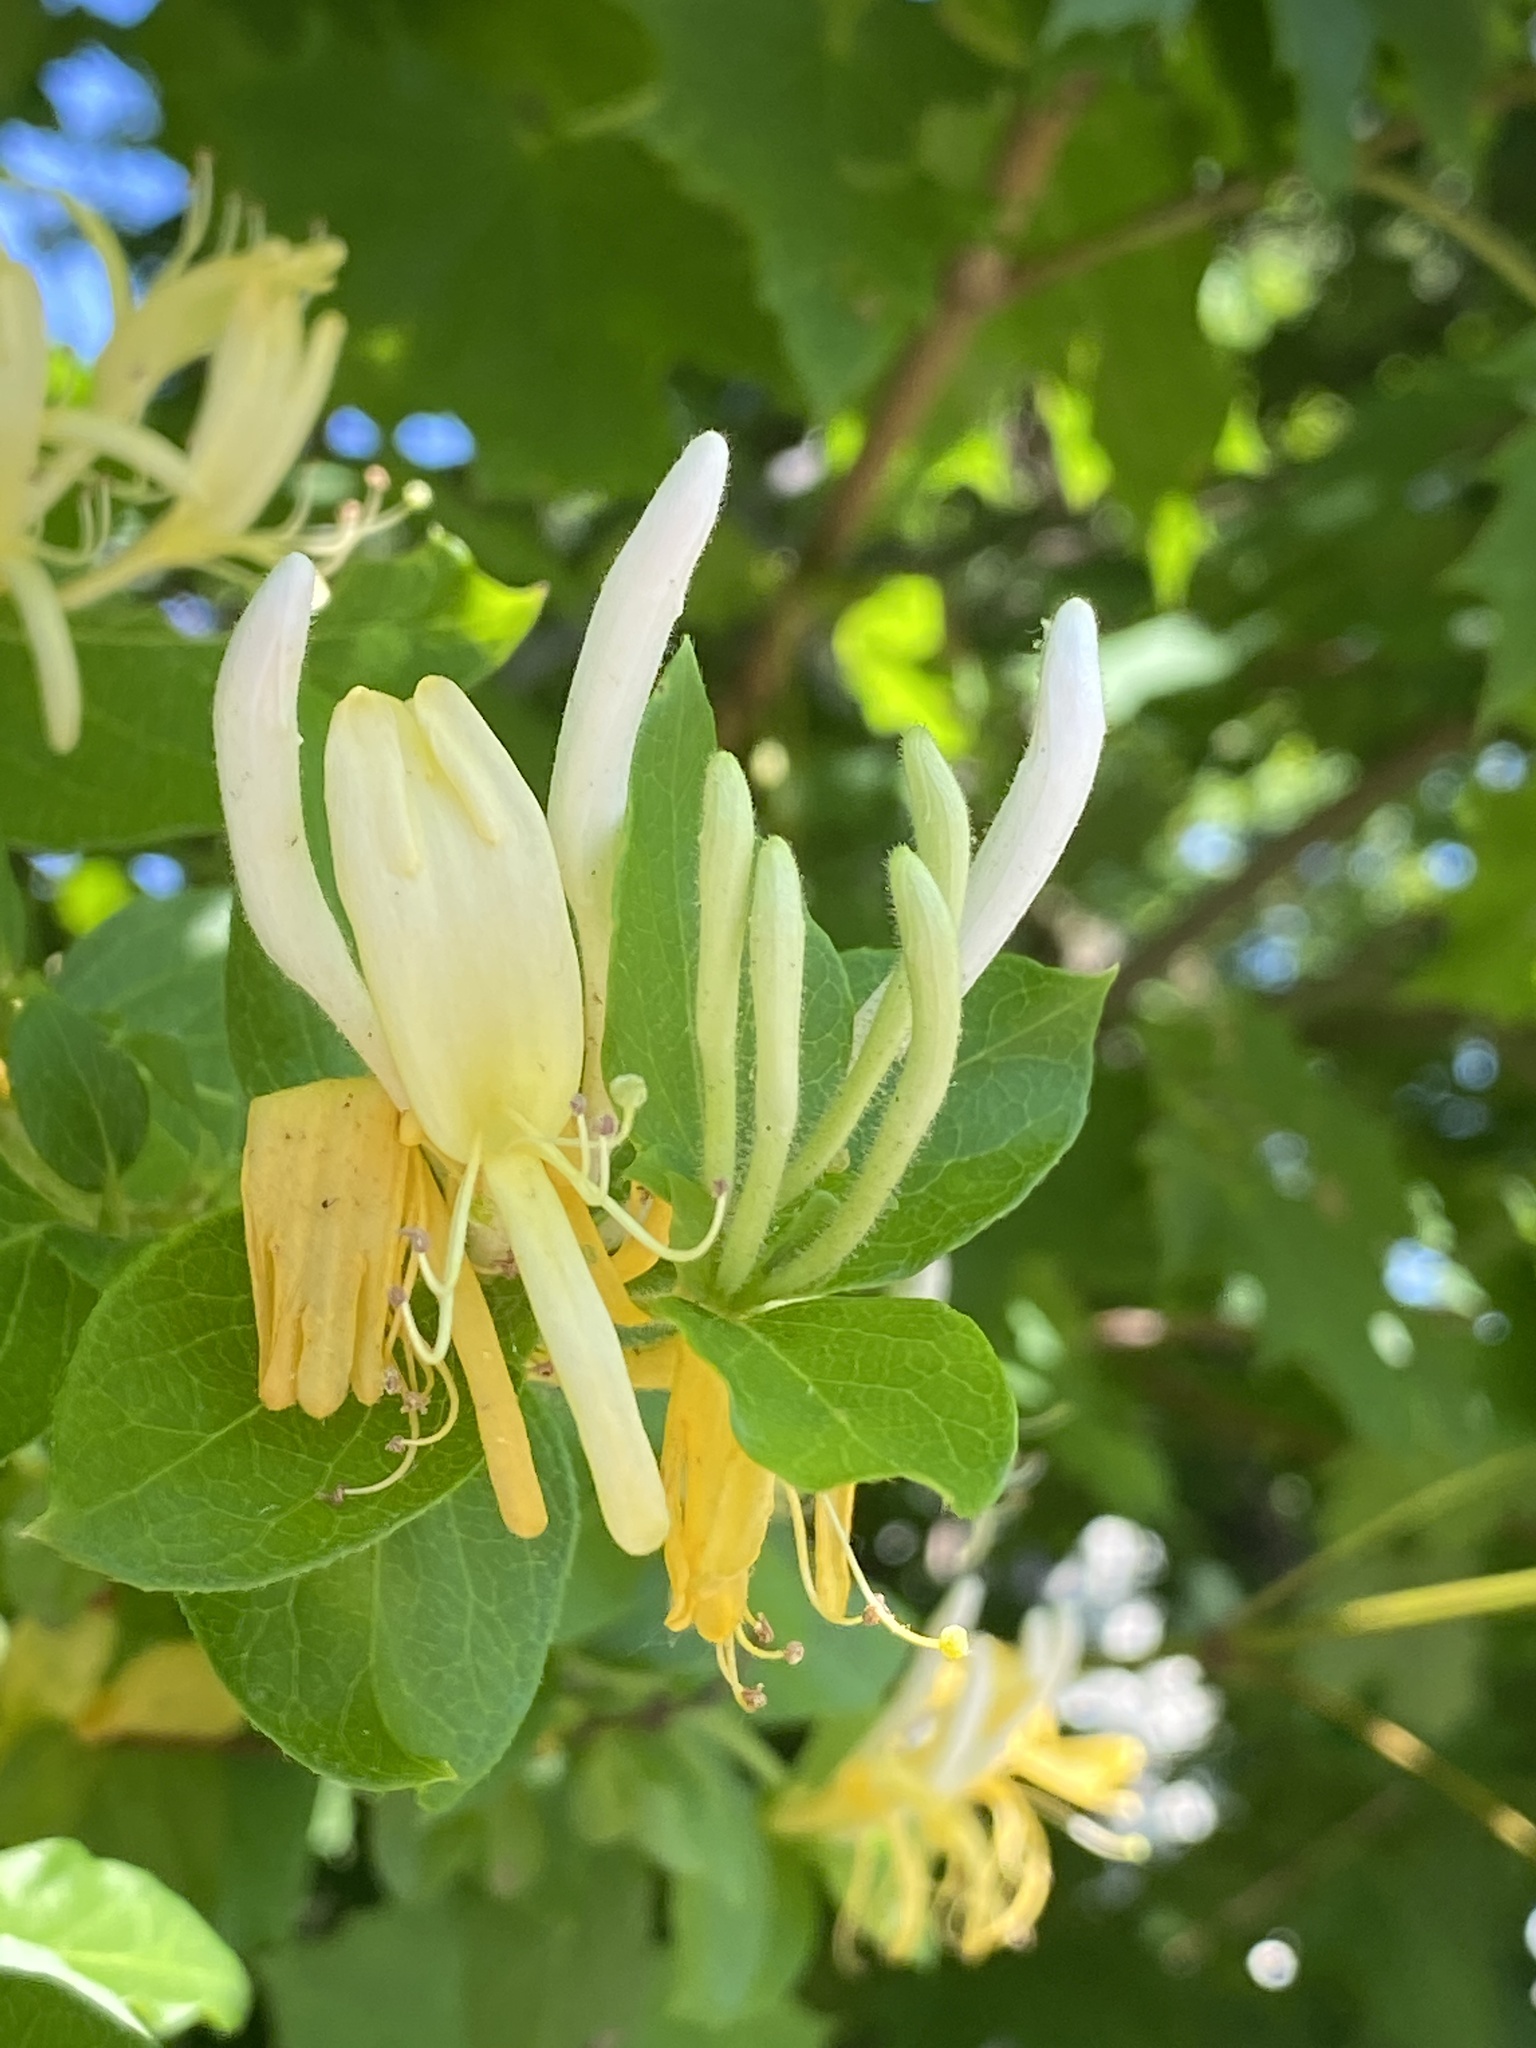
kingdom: Plantae
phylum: Tracheophyta
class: Magnoliopsida
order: Dipsacales
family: Caprifoliaceae
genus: Lonicera
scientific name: Lonicera japonica
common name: Japanese honeysuckle
